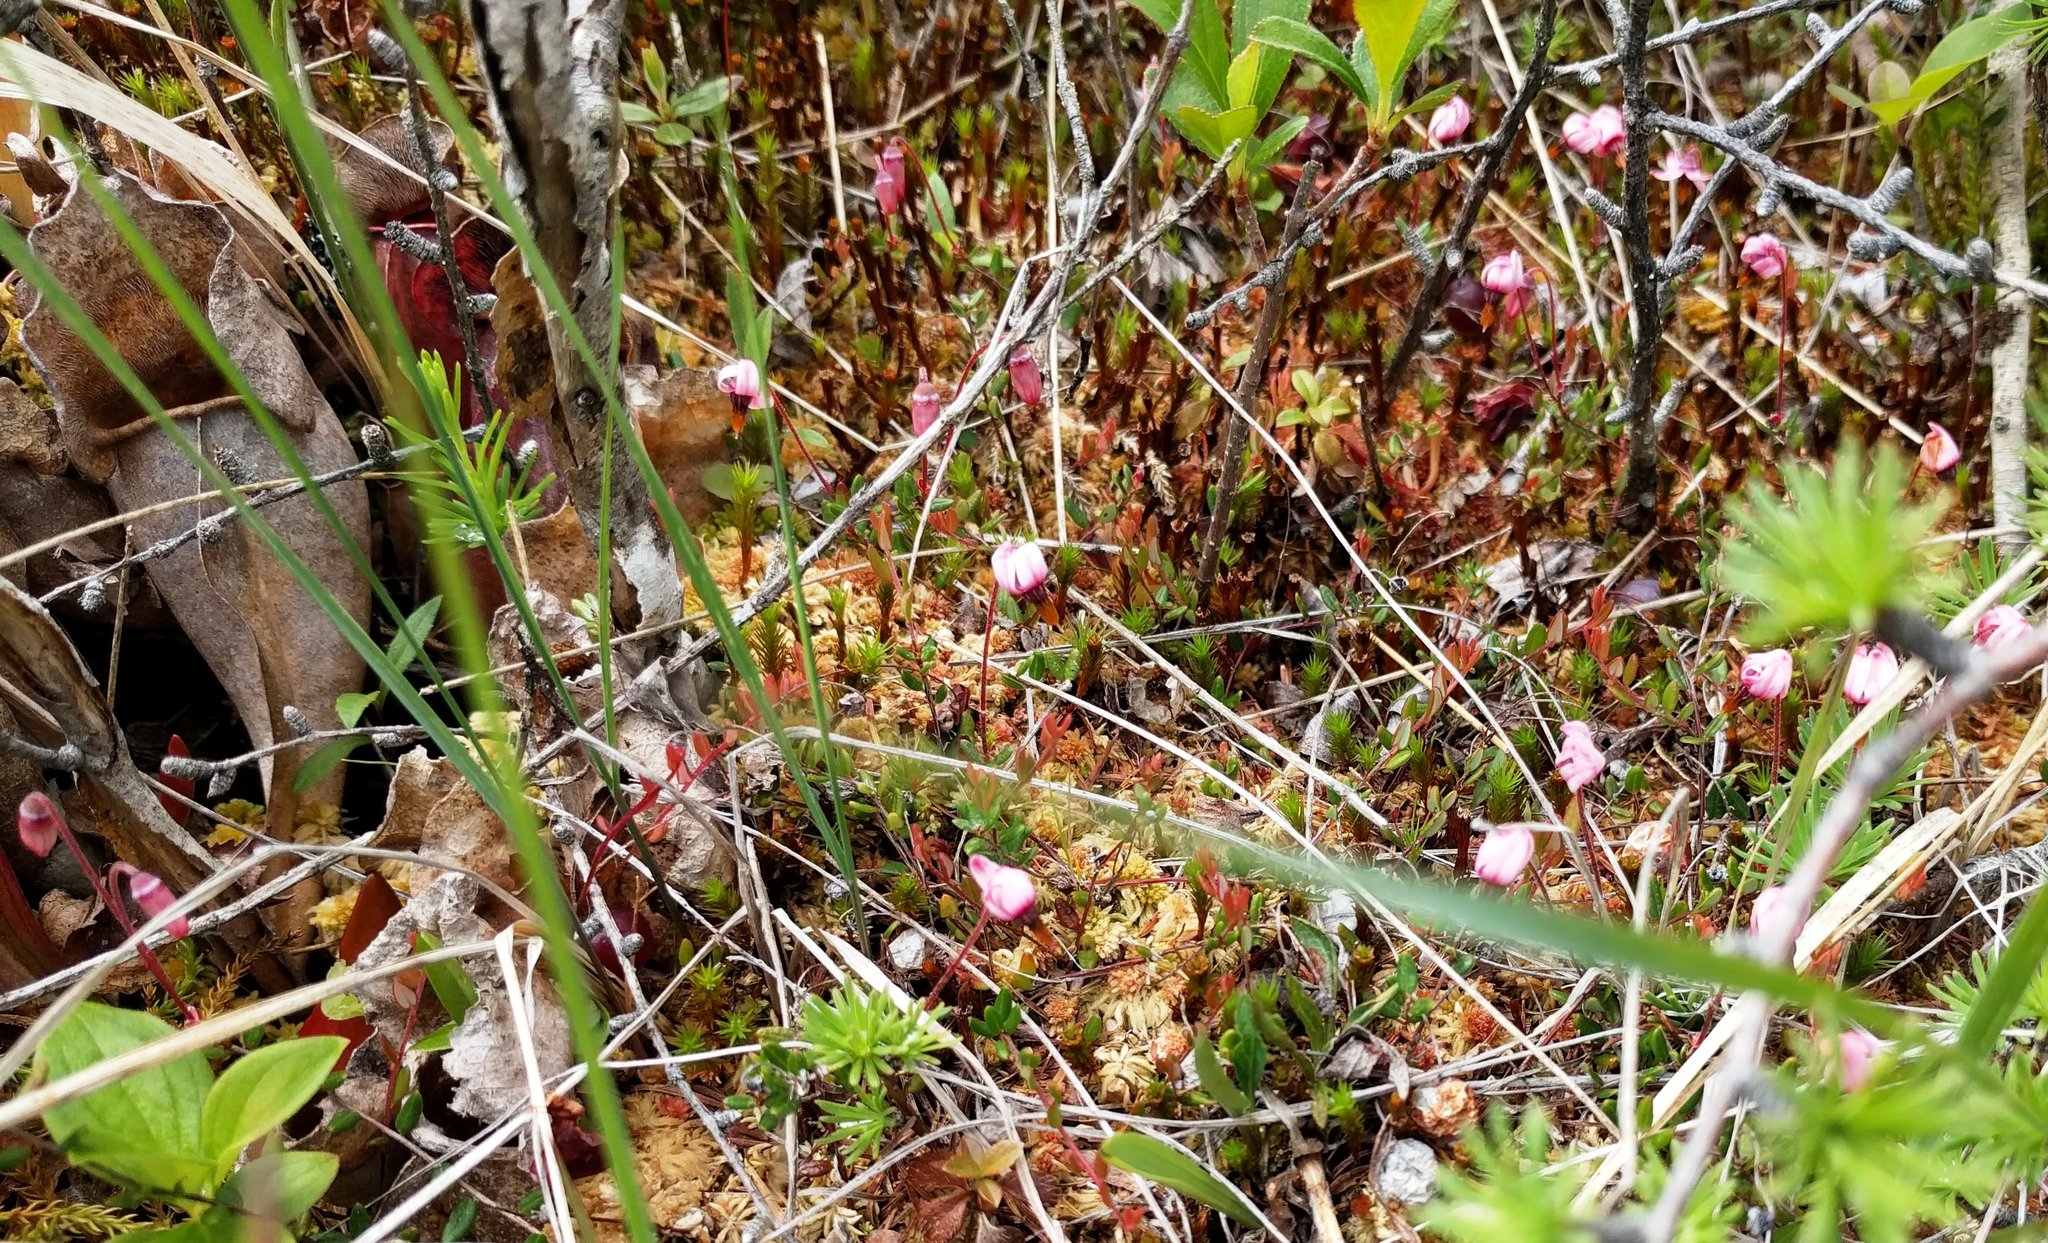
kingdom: Plantae
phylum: Tracheophyta
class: Magnoliopsida
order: Ericales
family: Ericaceae
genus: Vaccinium
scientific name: Vaccinium oxycoccos
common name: Cranberry
